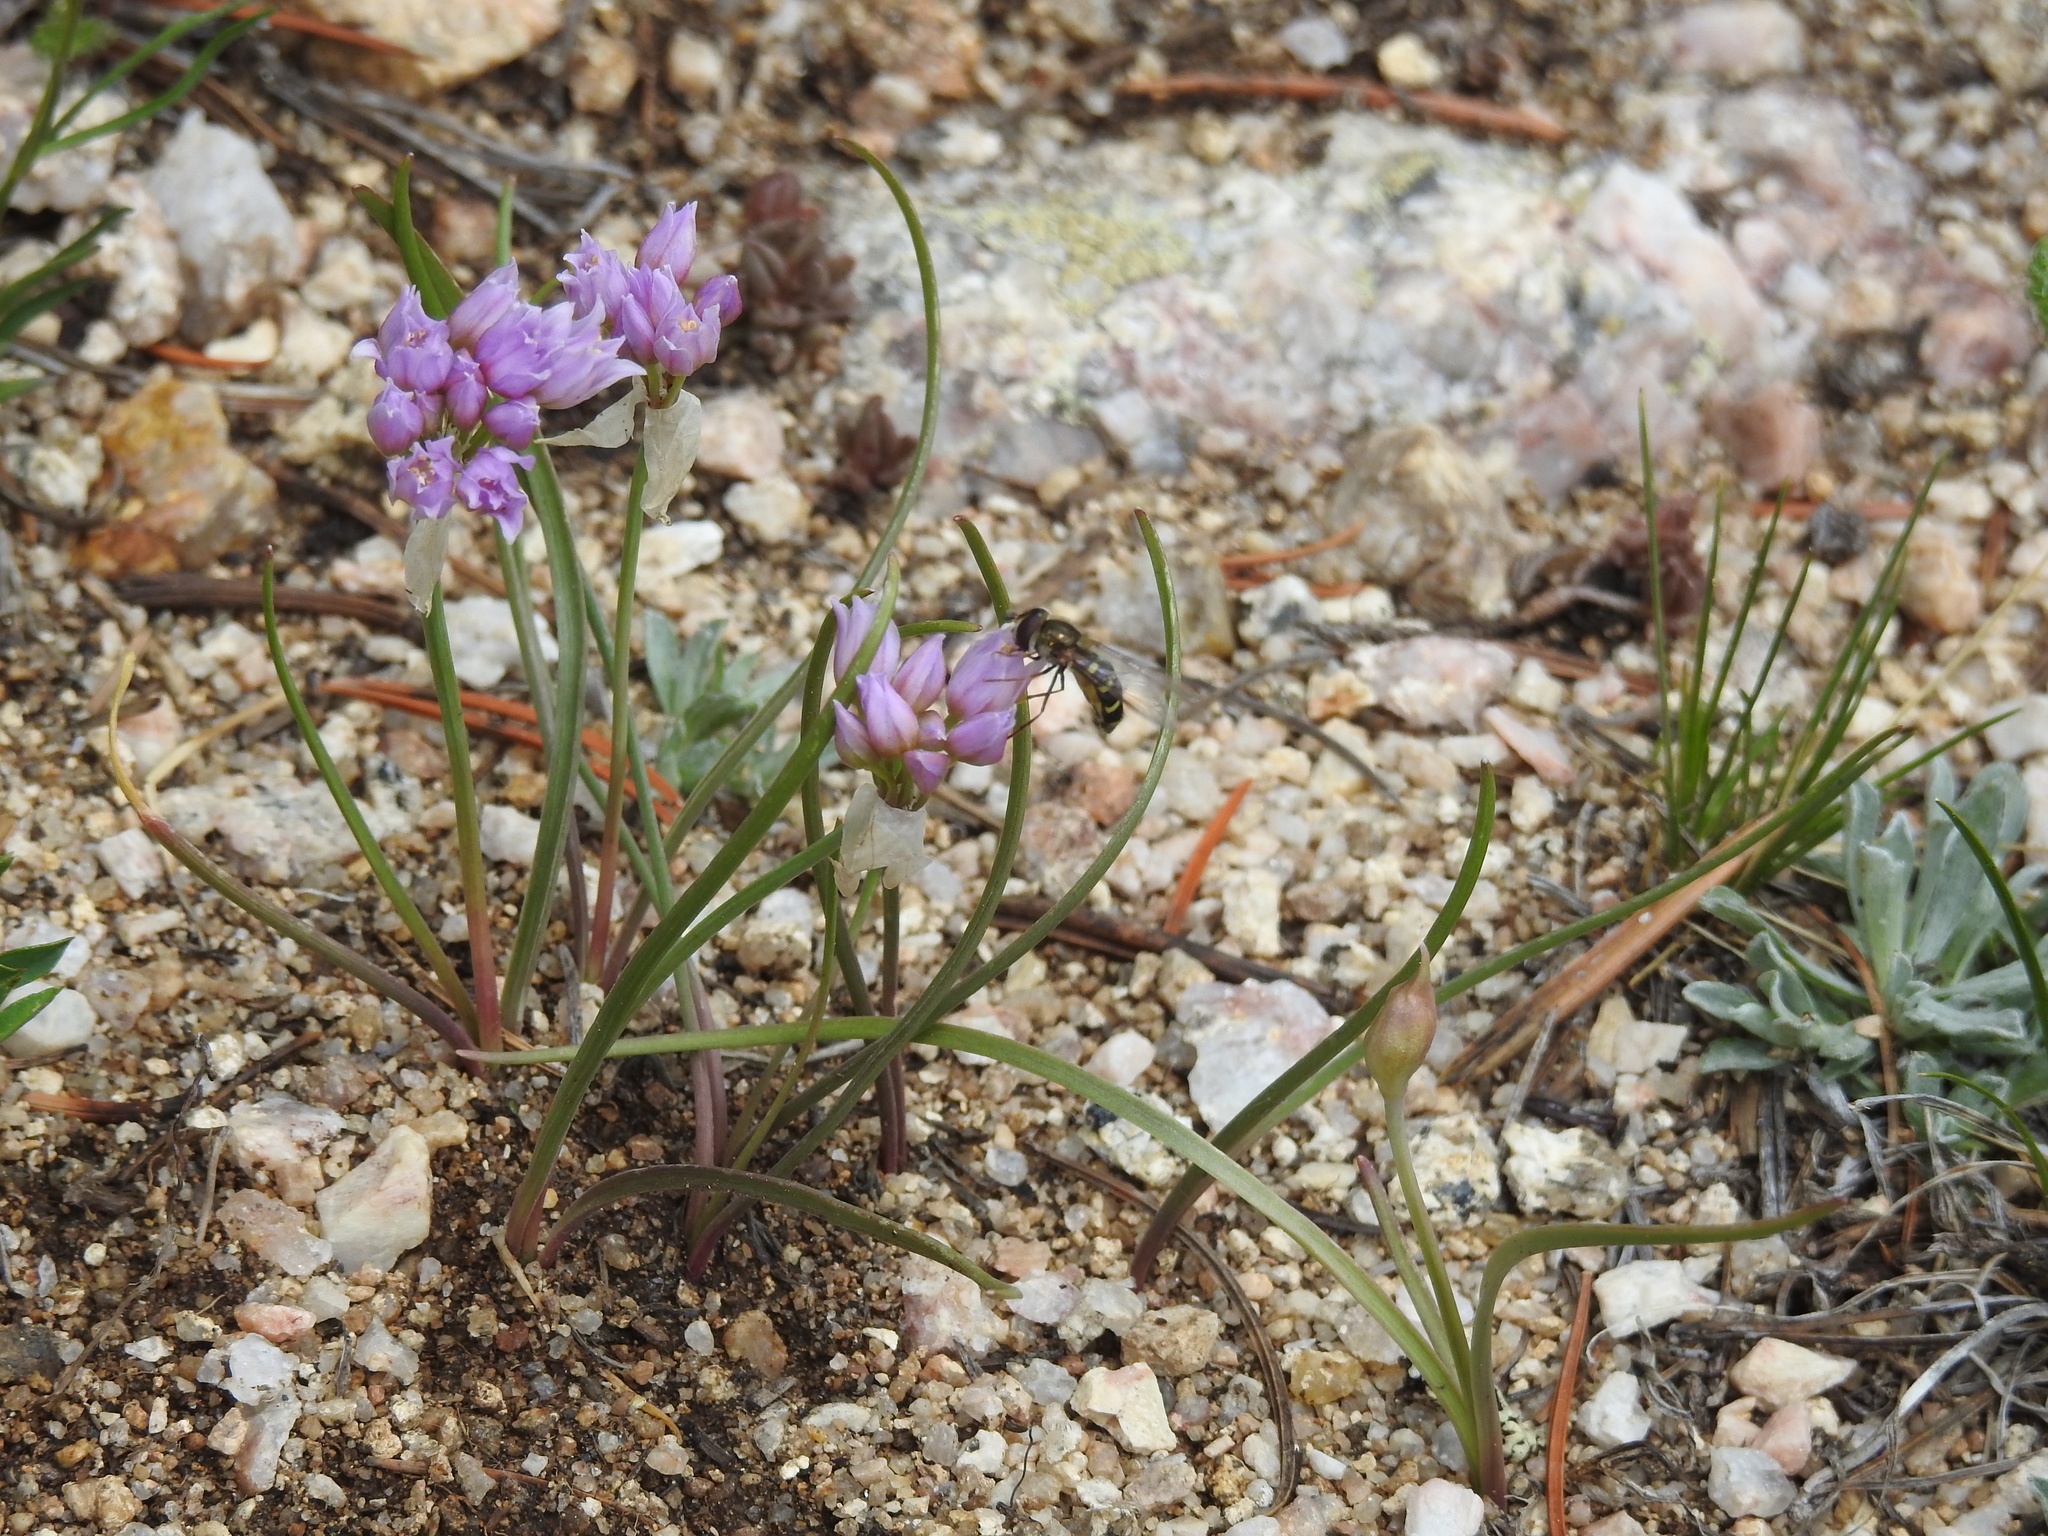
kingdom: Plantae
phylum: Tracheophyta
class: Liliopsida
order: Asparagales
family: Amaryllidaceae
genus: Allium
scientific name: Allium geyeri
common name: Geyer's onion
